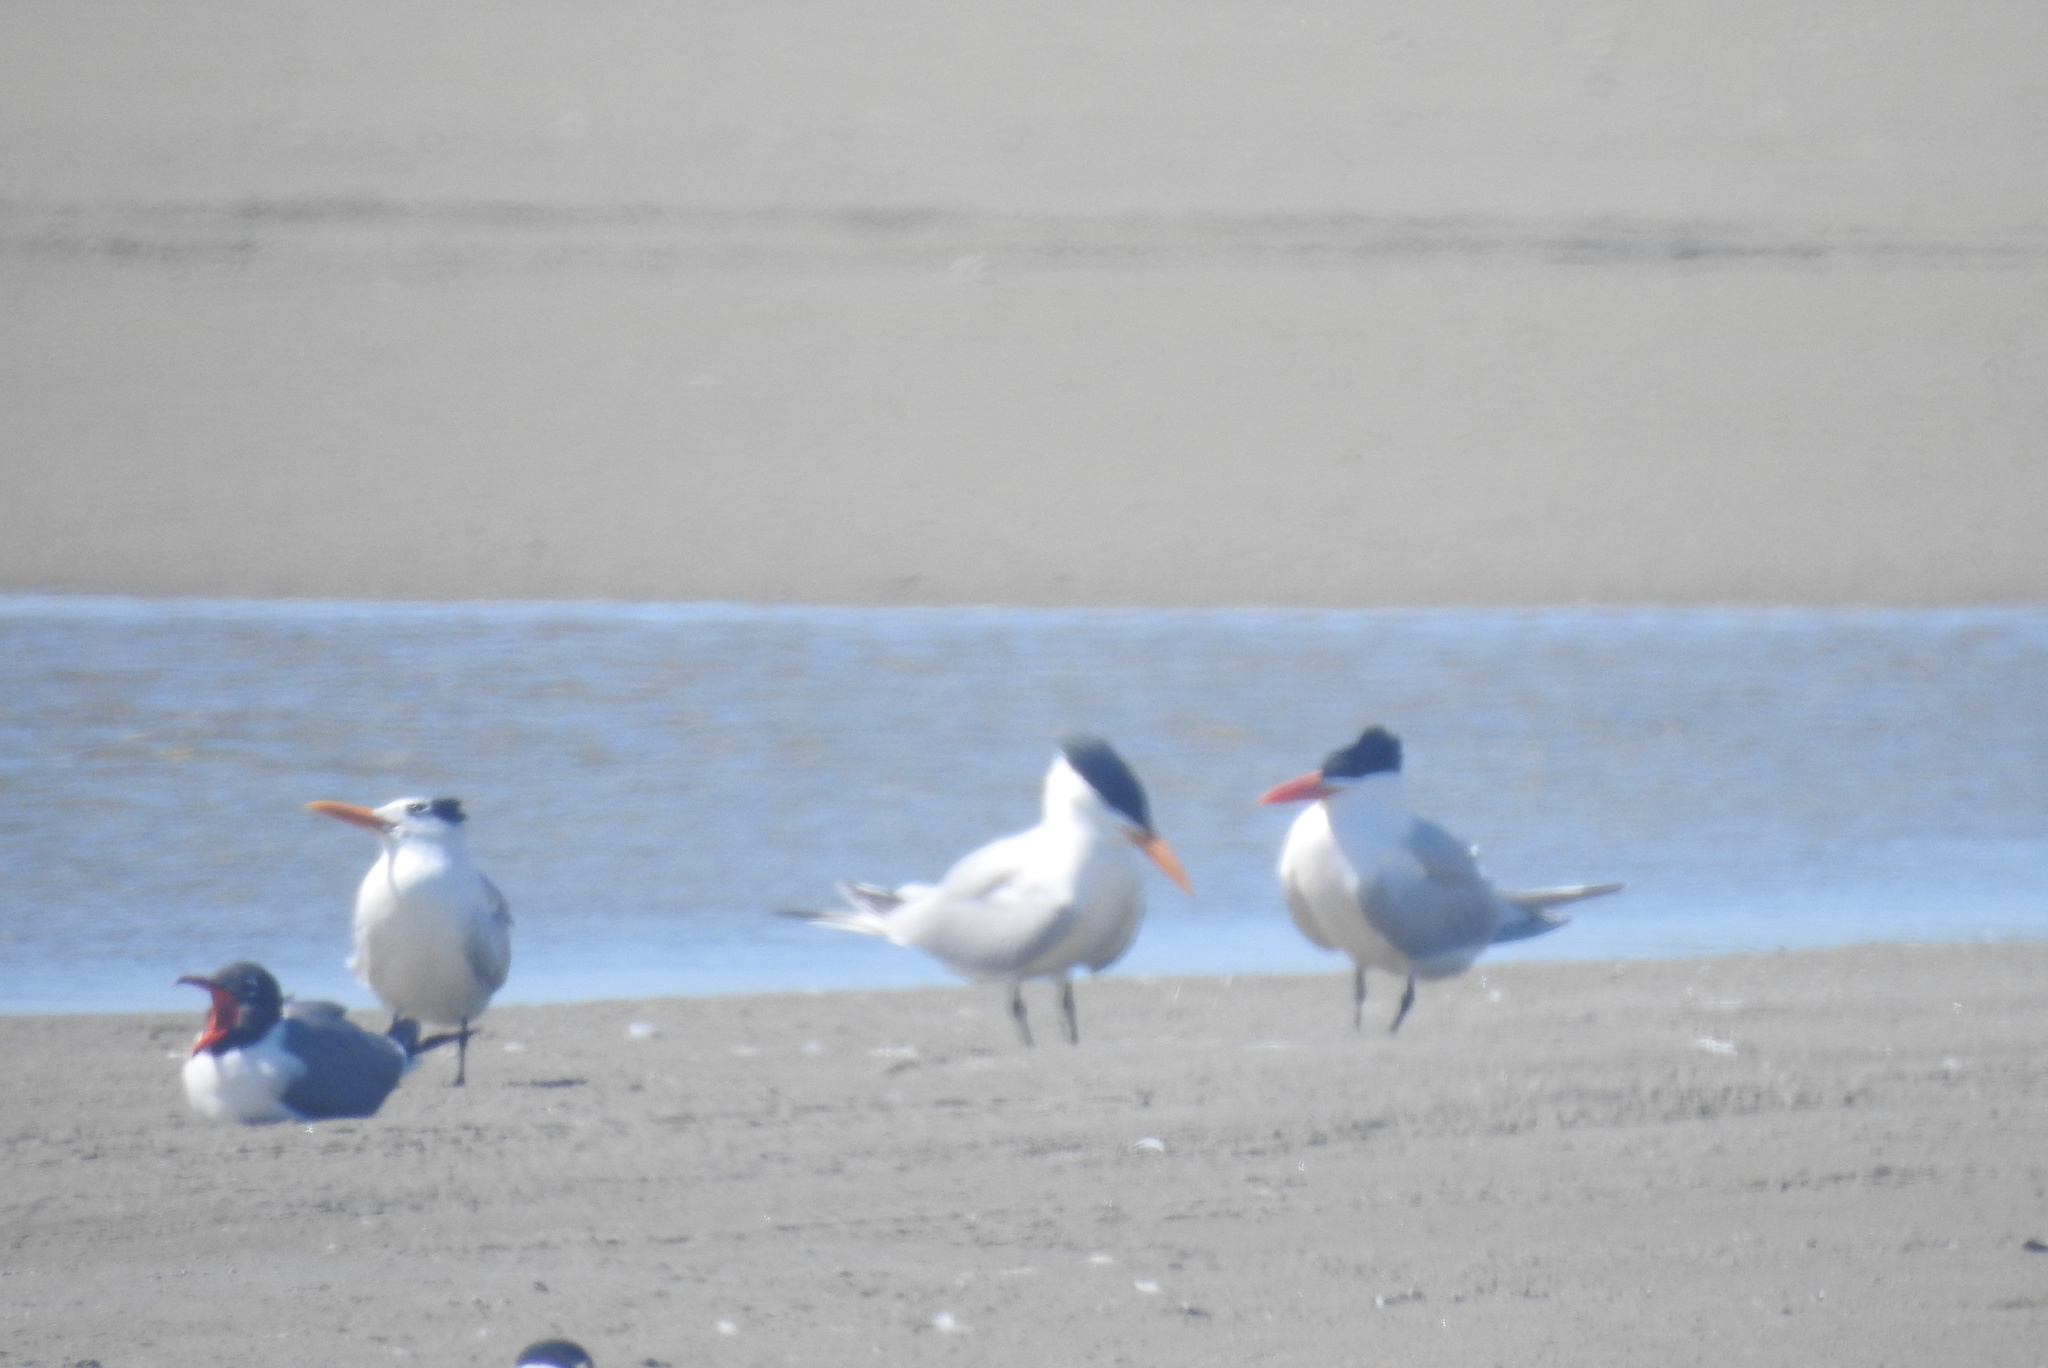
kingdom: Animalia
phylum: Chordata
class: Aves
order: Charadriiformes
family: Laridae
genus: Thalasseus
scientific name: Thalasseus maximus
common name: Royal tern
